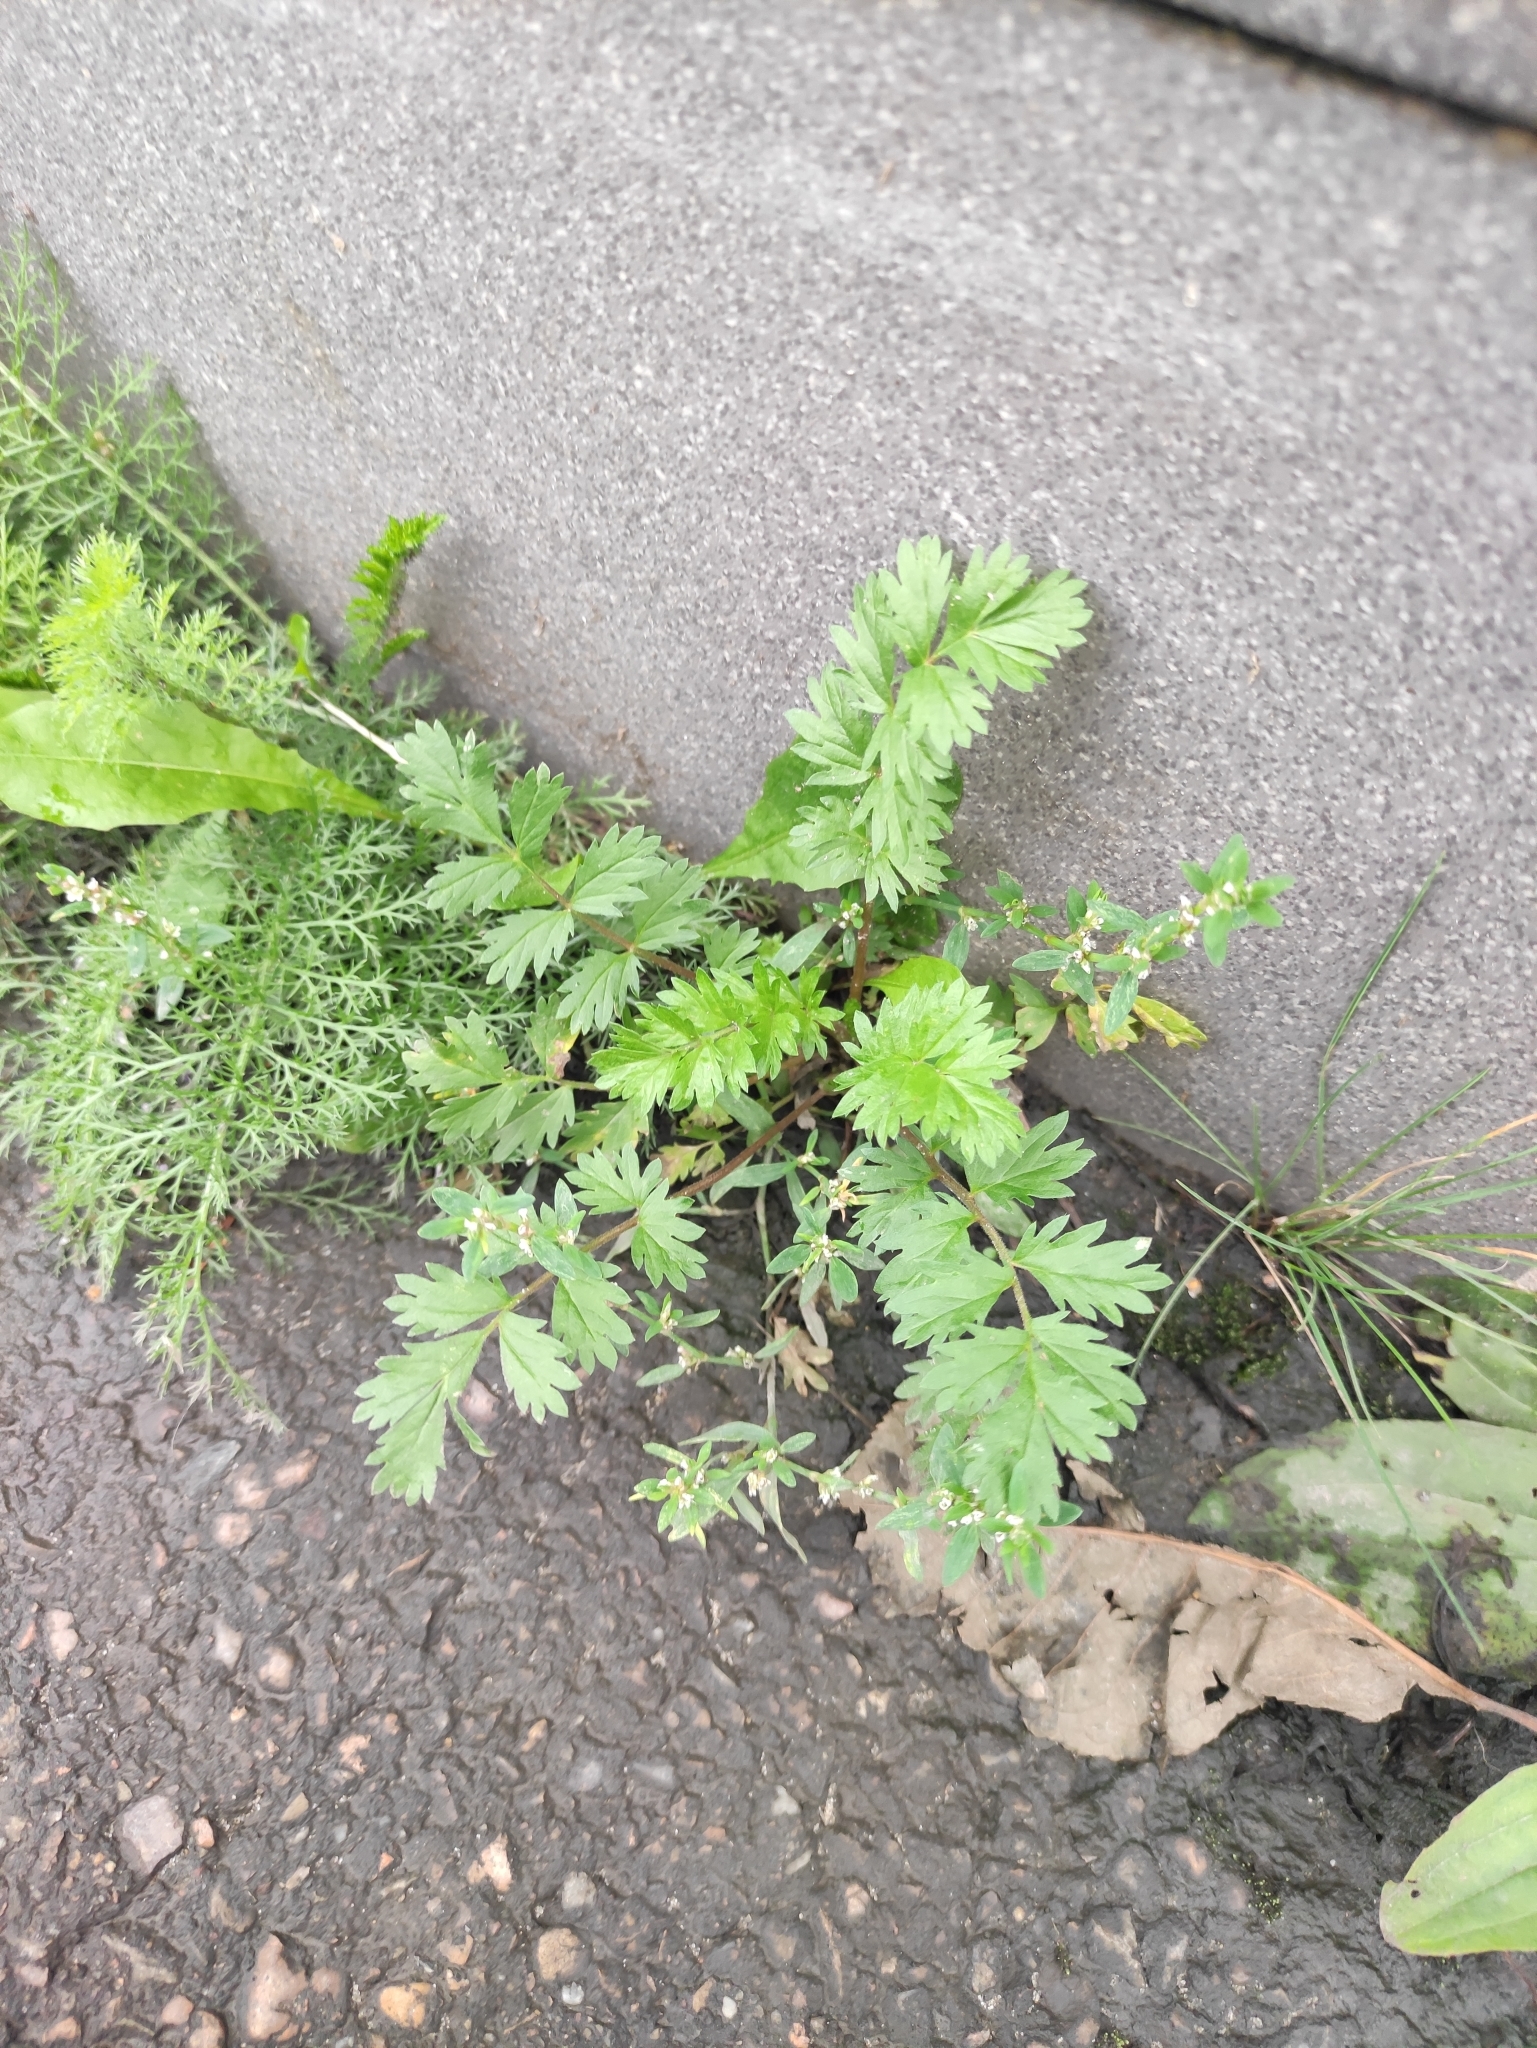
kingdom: Plantae
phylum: Tracheophyta
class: Magnoliopsida
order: Rosales
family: Rosaceae
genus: Potentilla
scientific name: Potentilla supina
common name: Prostrate cinquefoil
